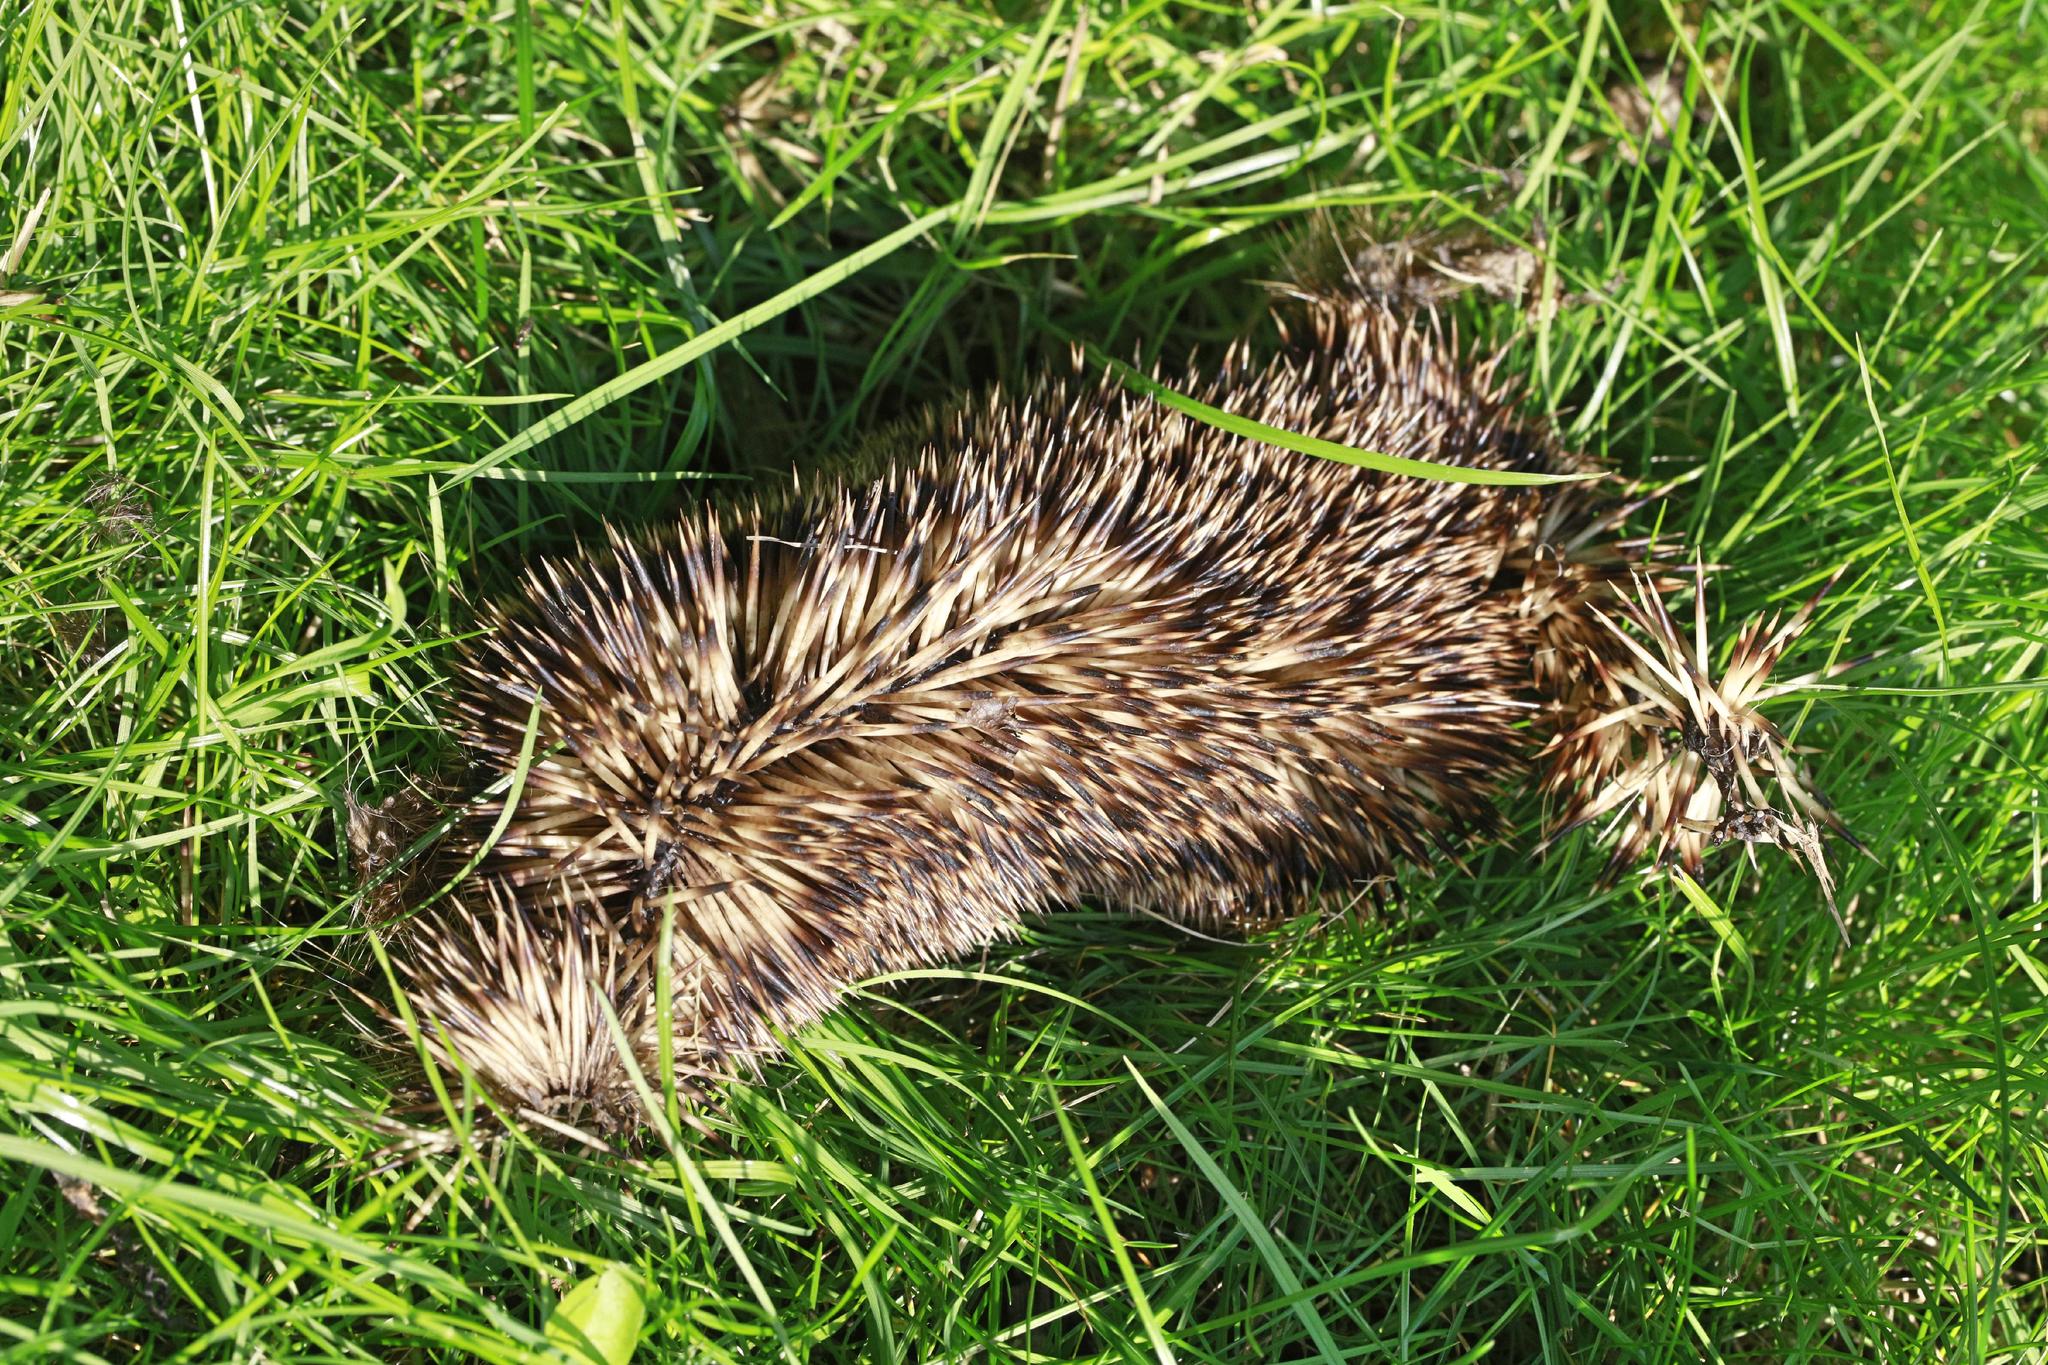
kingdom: Animalia
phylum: Chordata
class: Mammalia
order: Erinaceomorpha
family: Erinaceidae
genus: Erinaceus
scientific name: Erinaceus europaeus
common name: West european hedgehog
